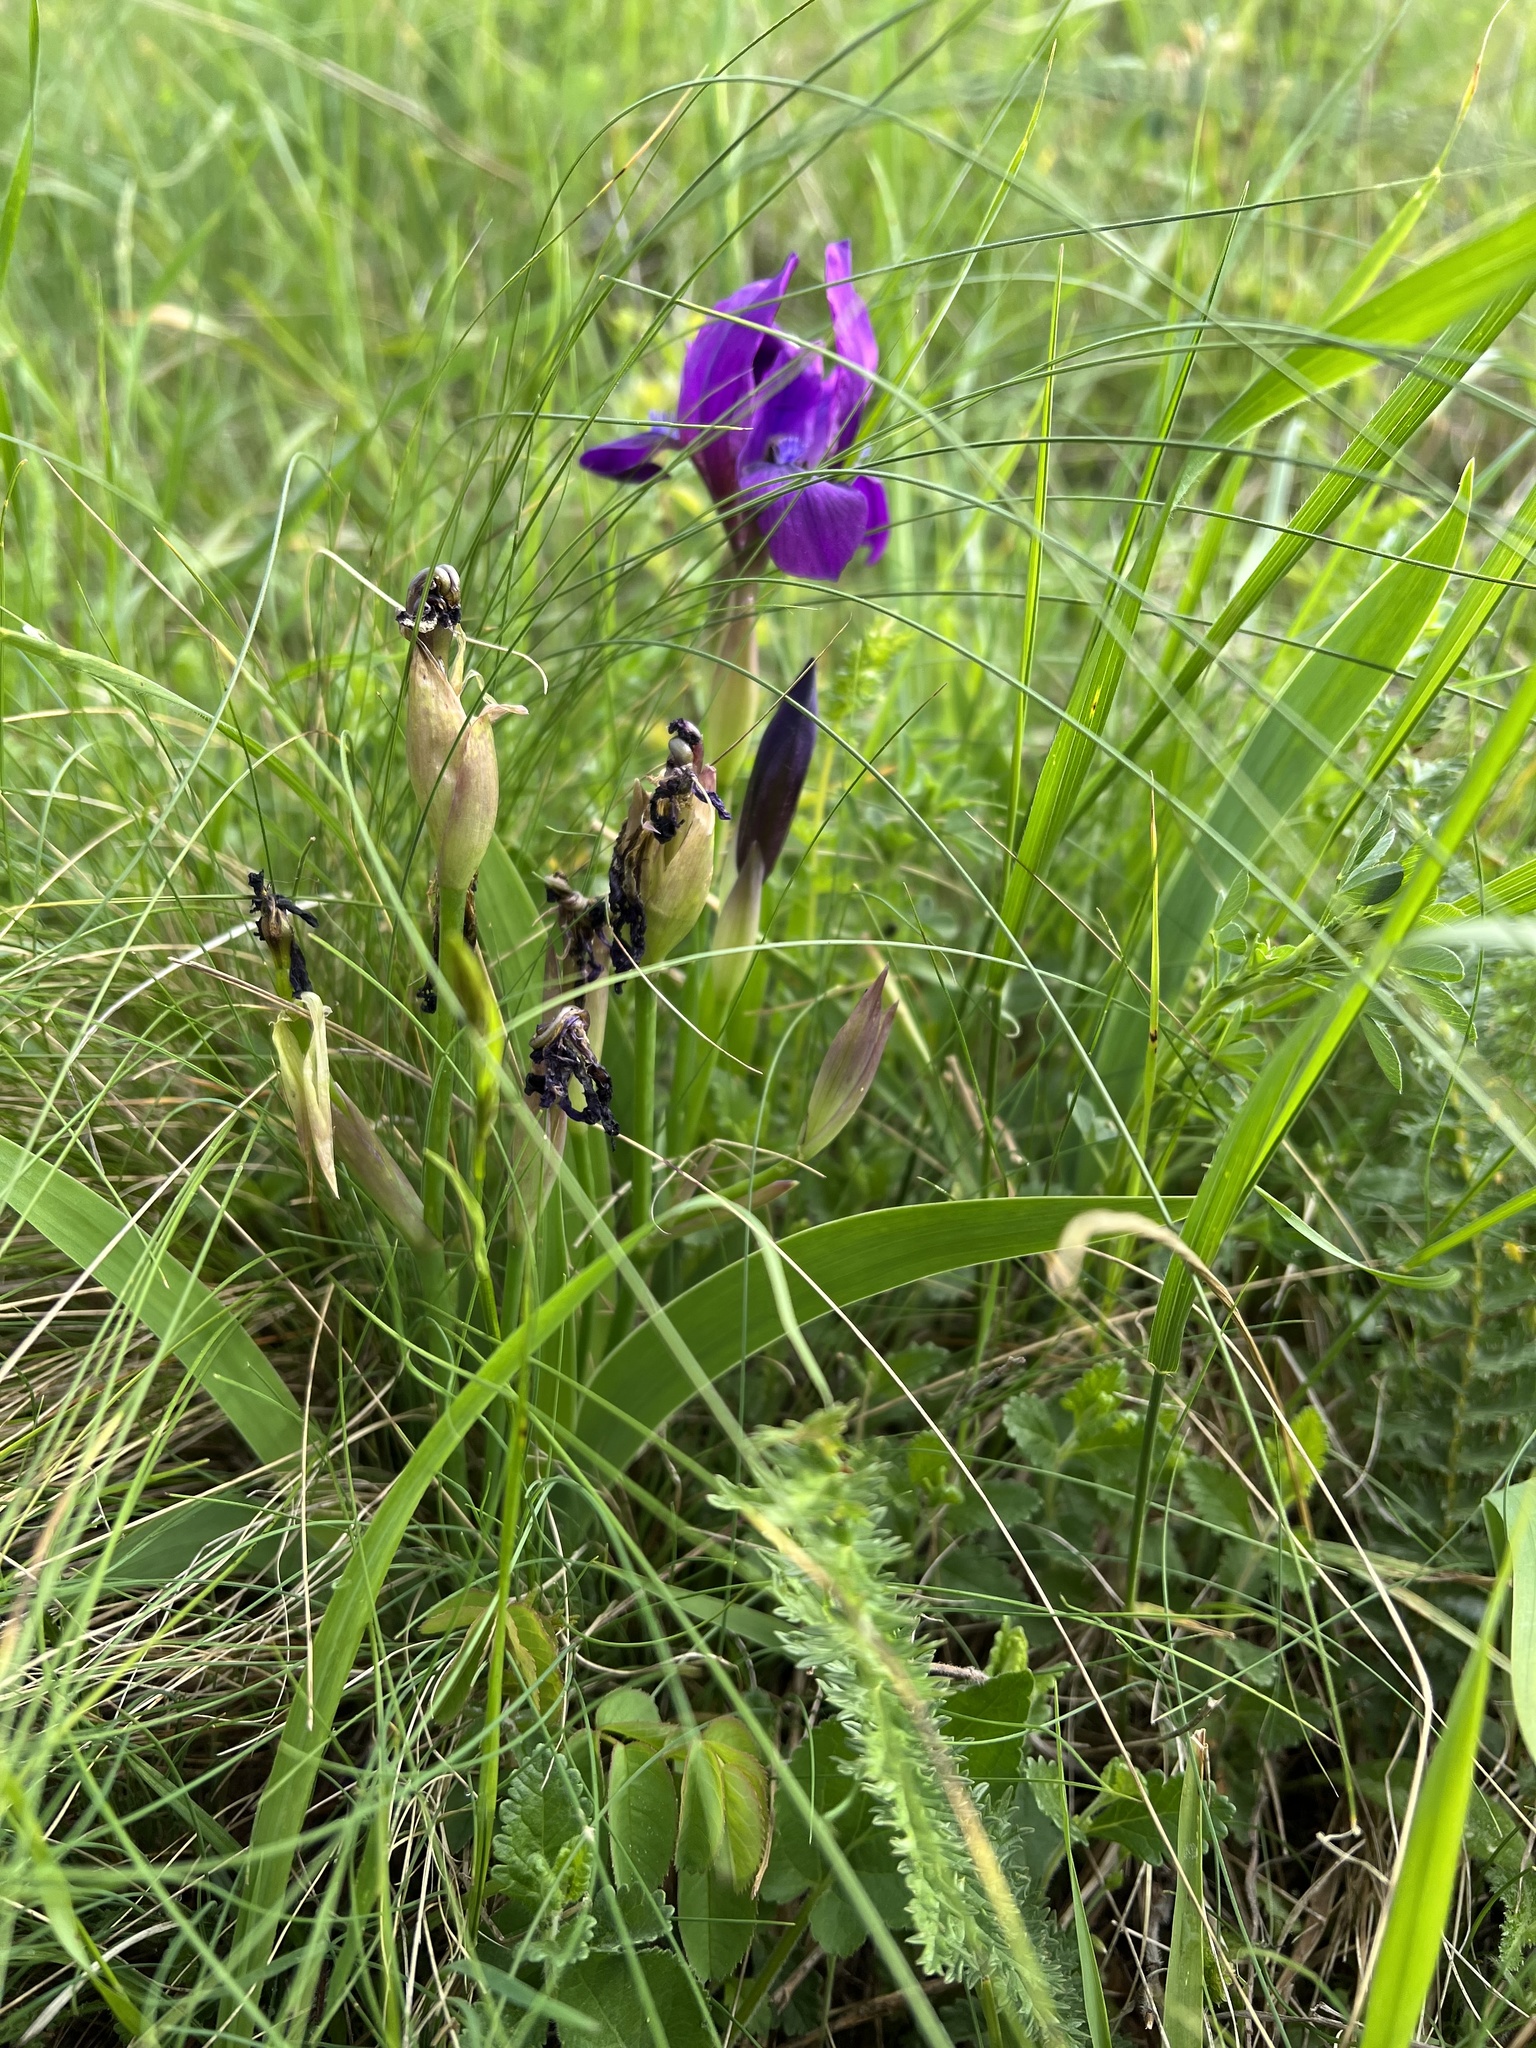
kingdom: Plantae
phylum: Tracheophyta
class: Liliopsida
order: Asparagales
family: Iridaceae
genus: Iris
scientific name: Iris aphylla
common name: Stool iris
